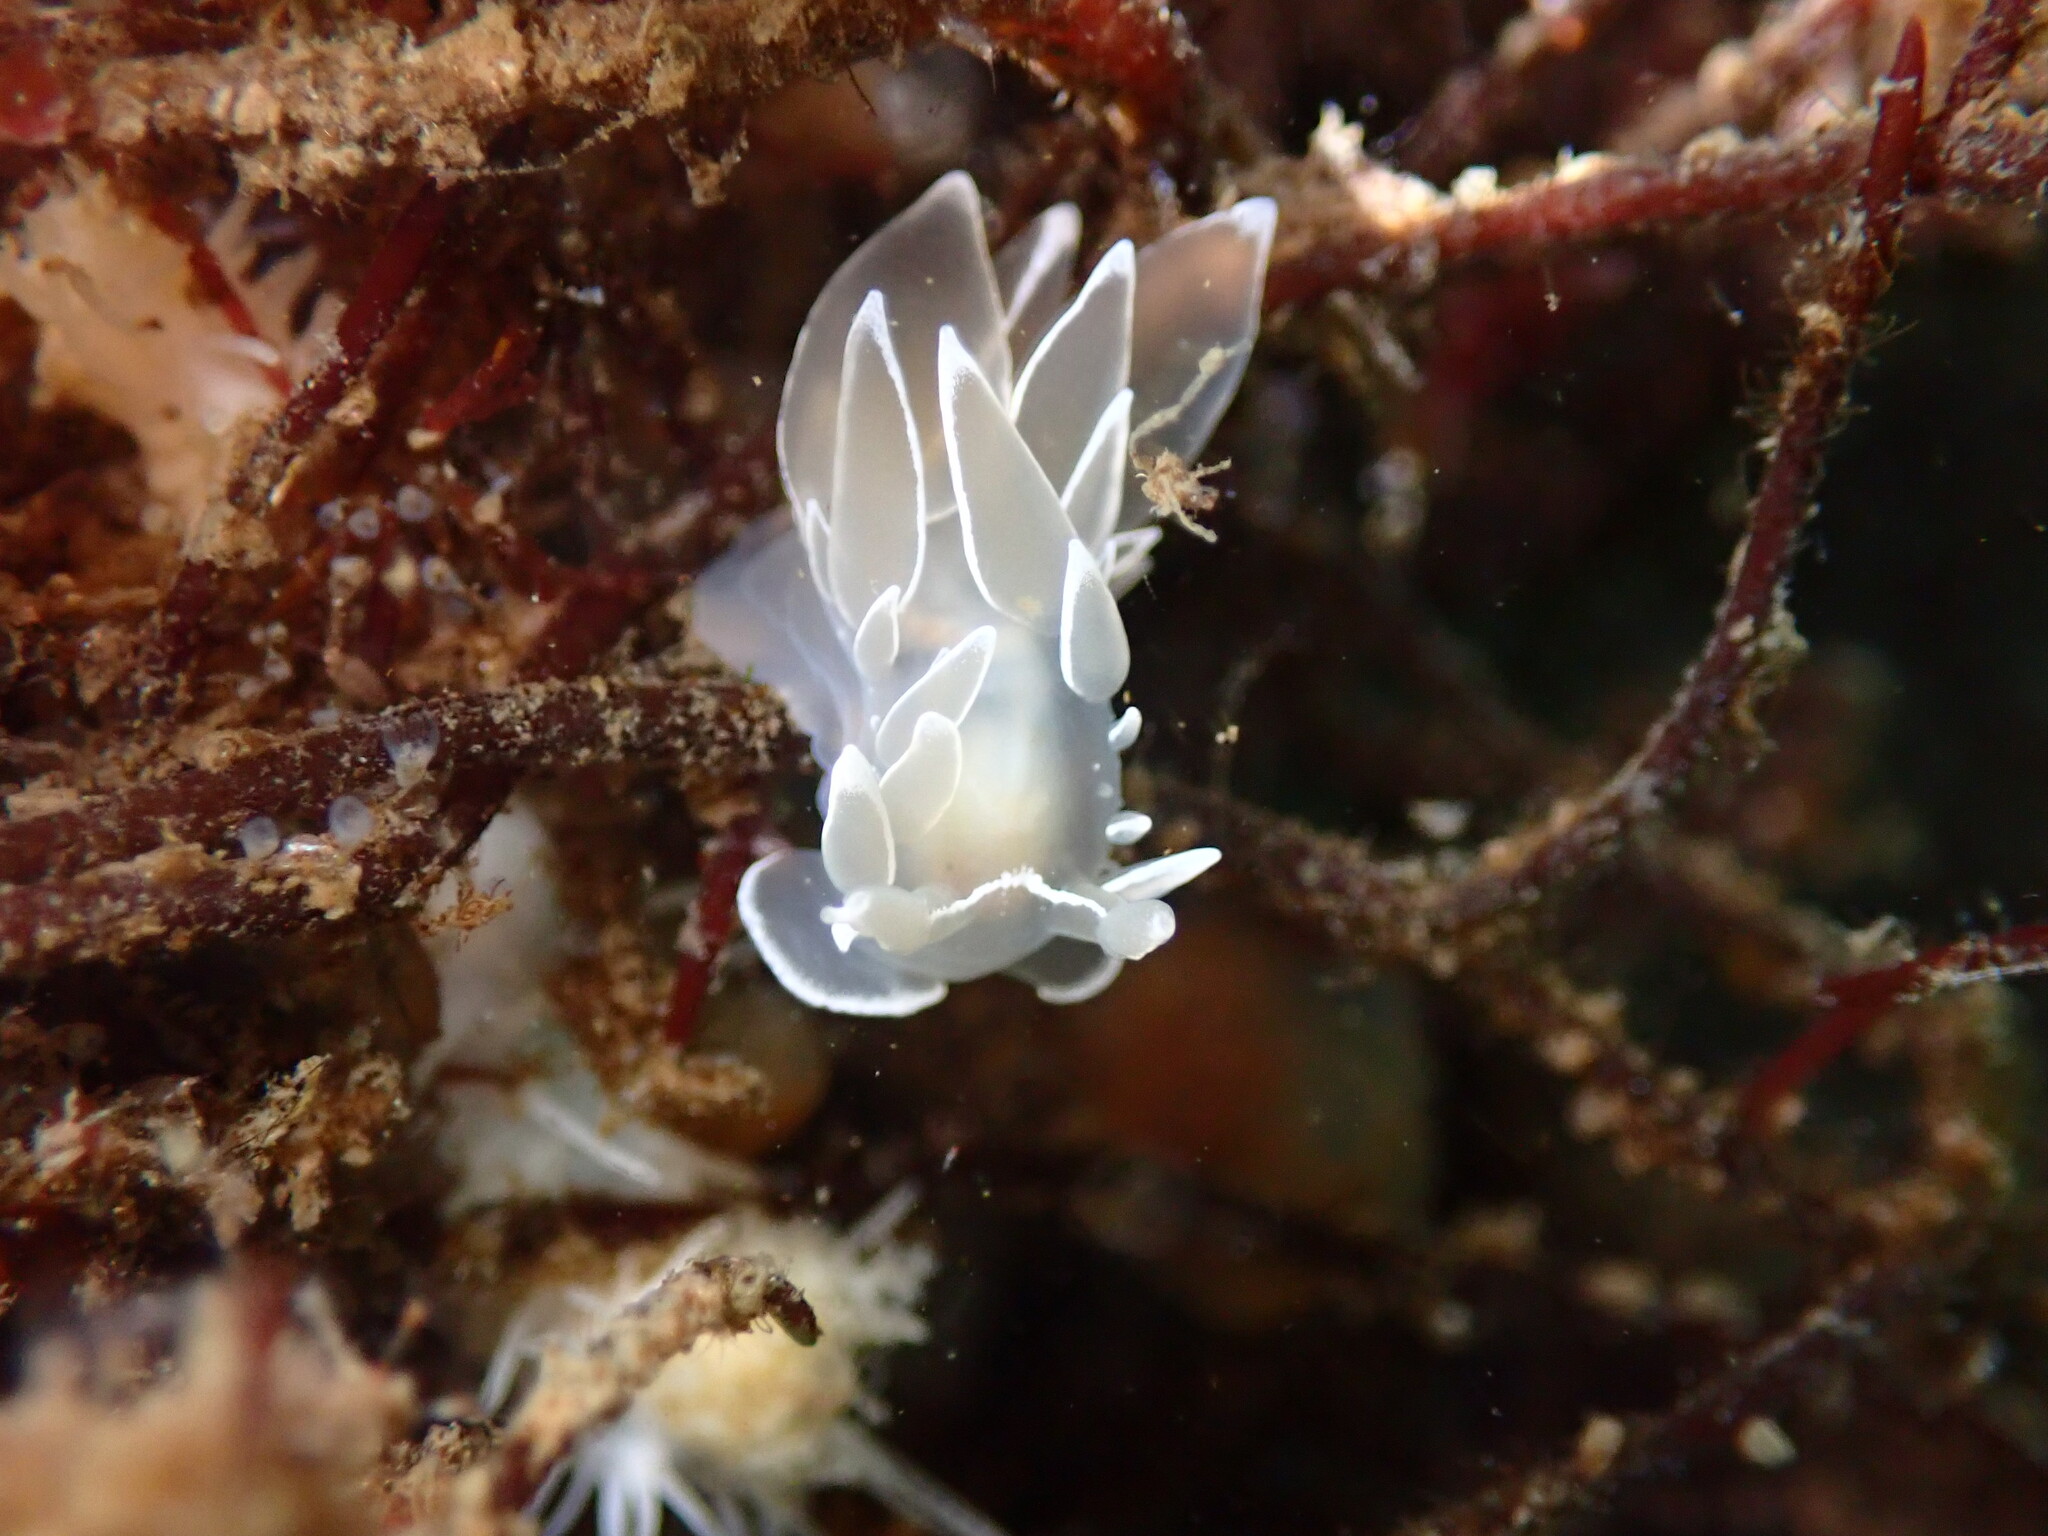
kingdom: Animalia
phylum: Mollusca
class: Gastropoda
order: Nudibranchia
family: Dironidae
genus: Dirona
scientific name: Dirona albolineata
